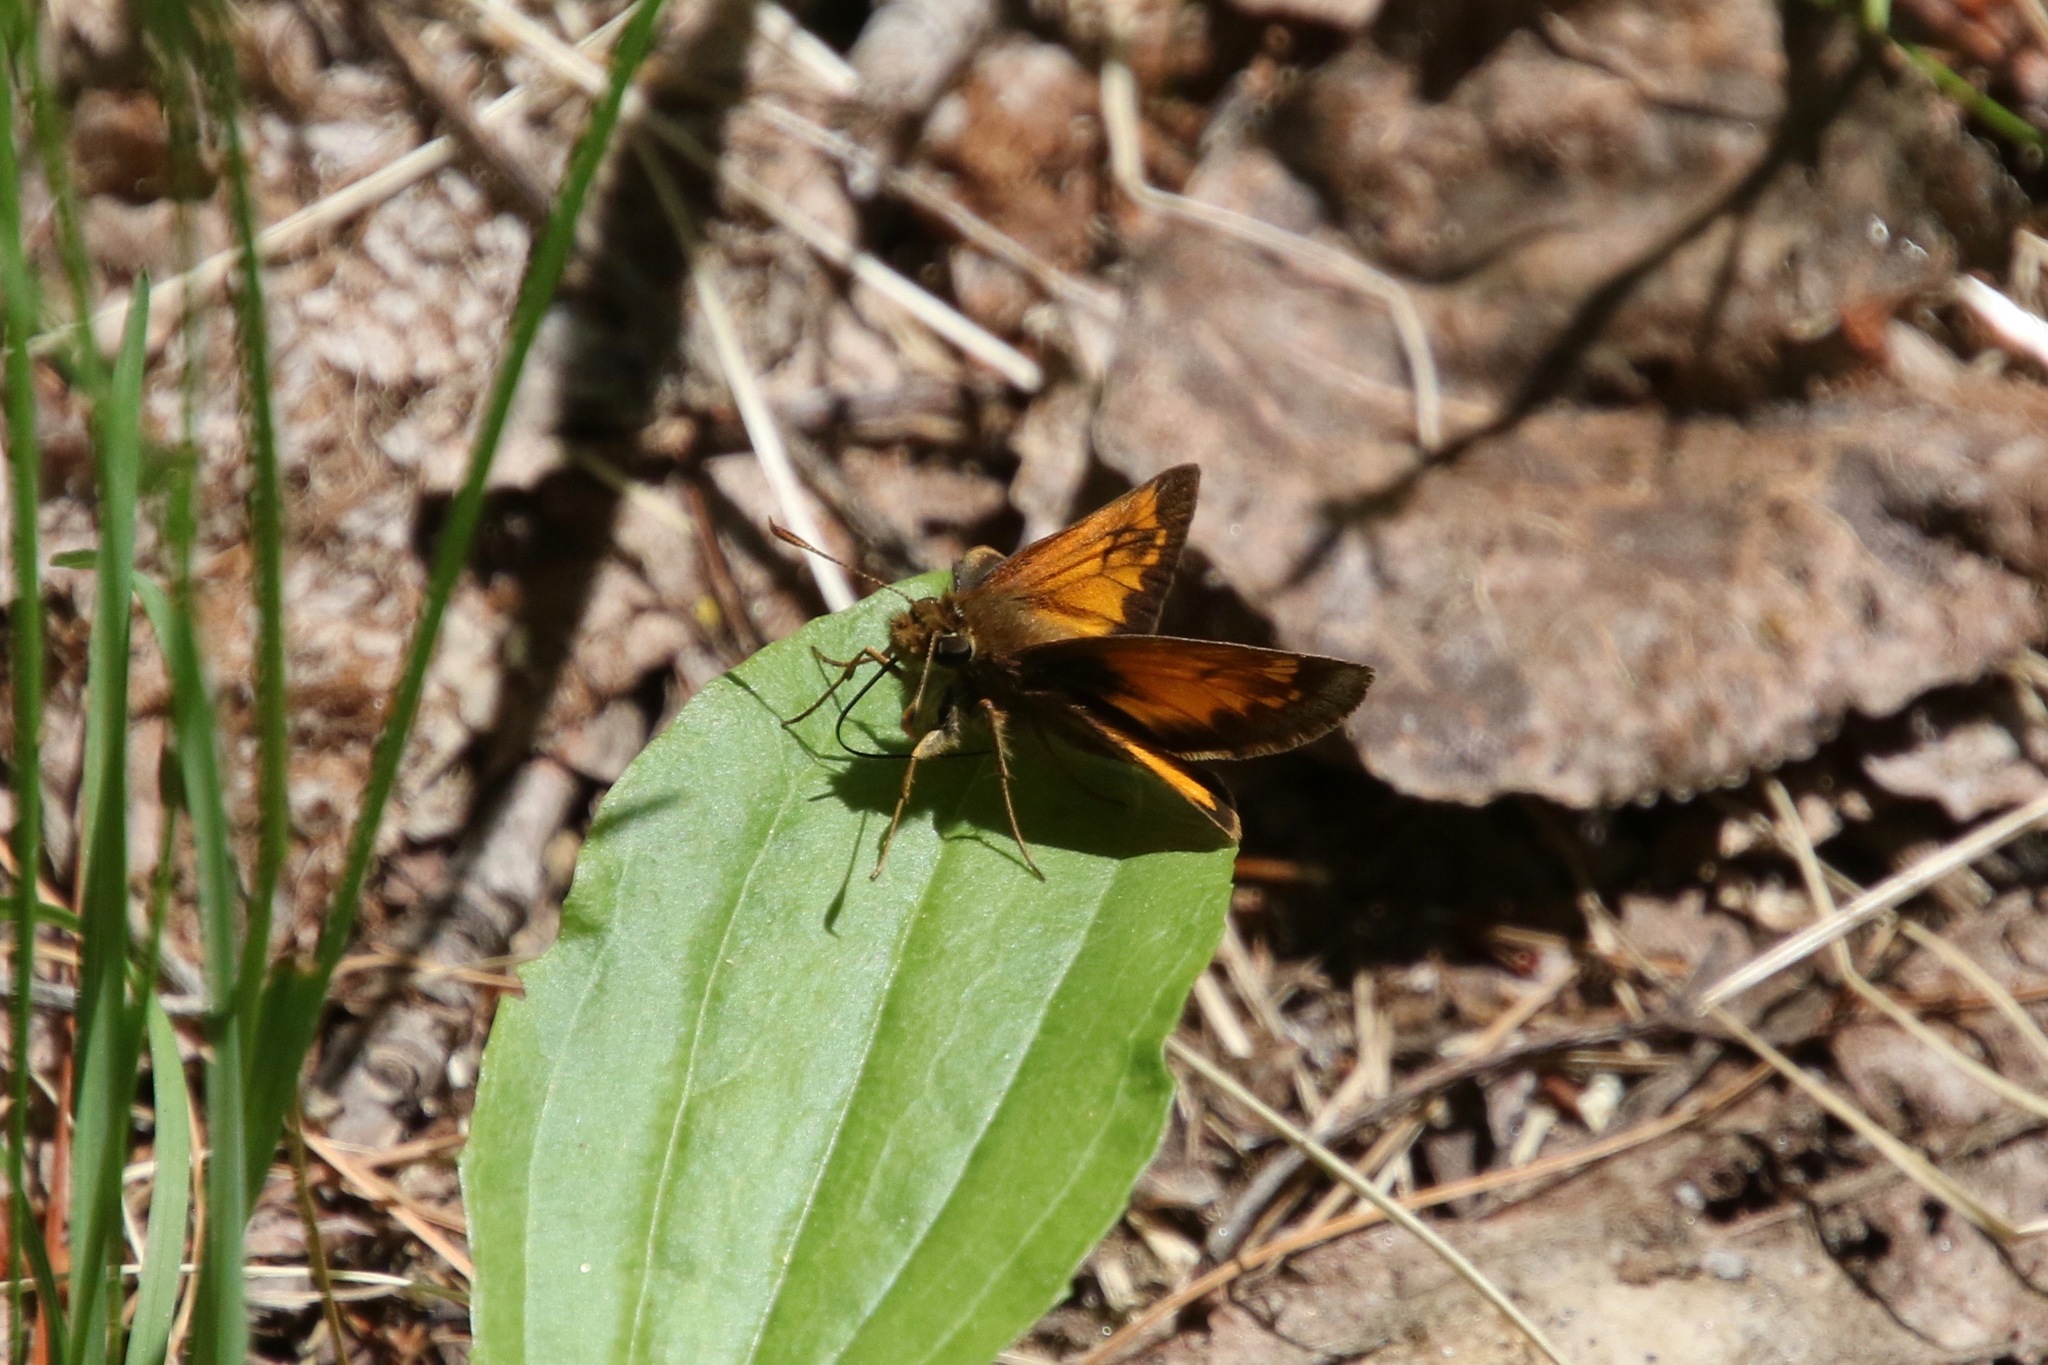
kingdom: Animalia
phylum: Arthropoda
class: Insecta
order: Lepidoptera
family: Hesperiidae
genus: Lon
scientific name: Lon hobomok
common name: Hobomok skipper
